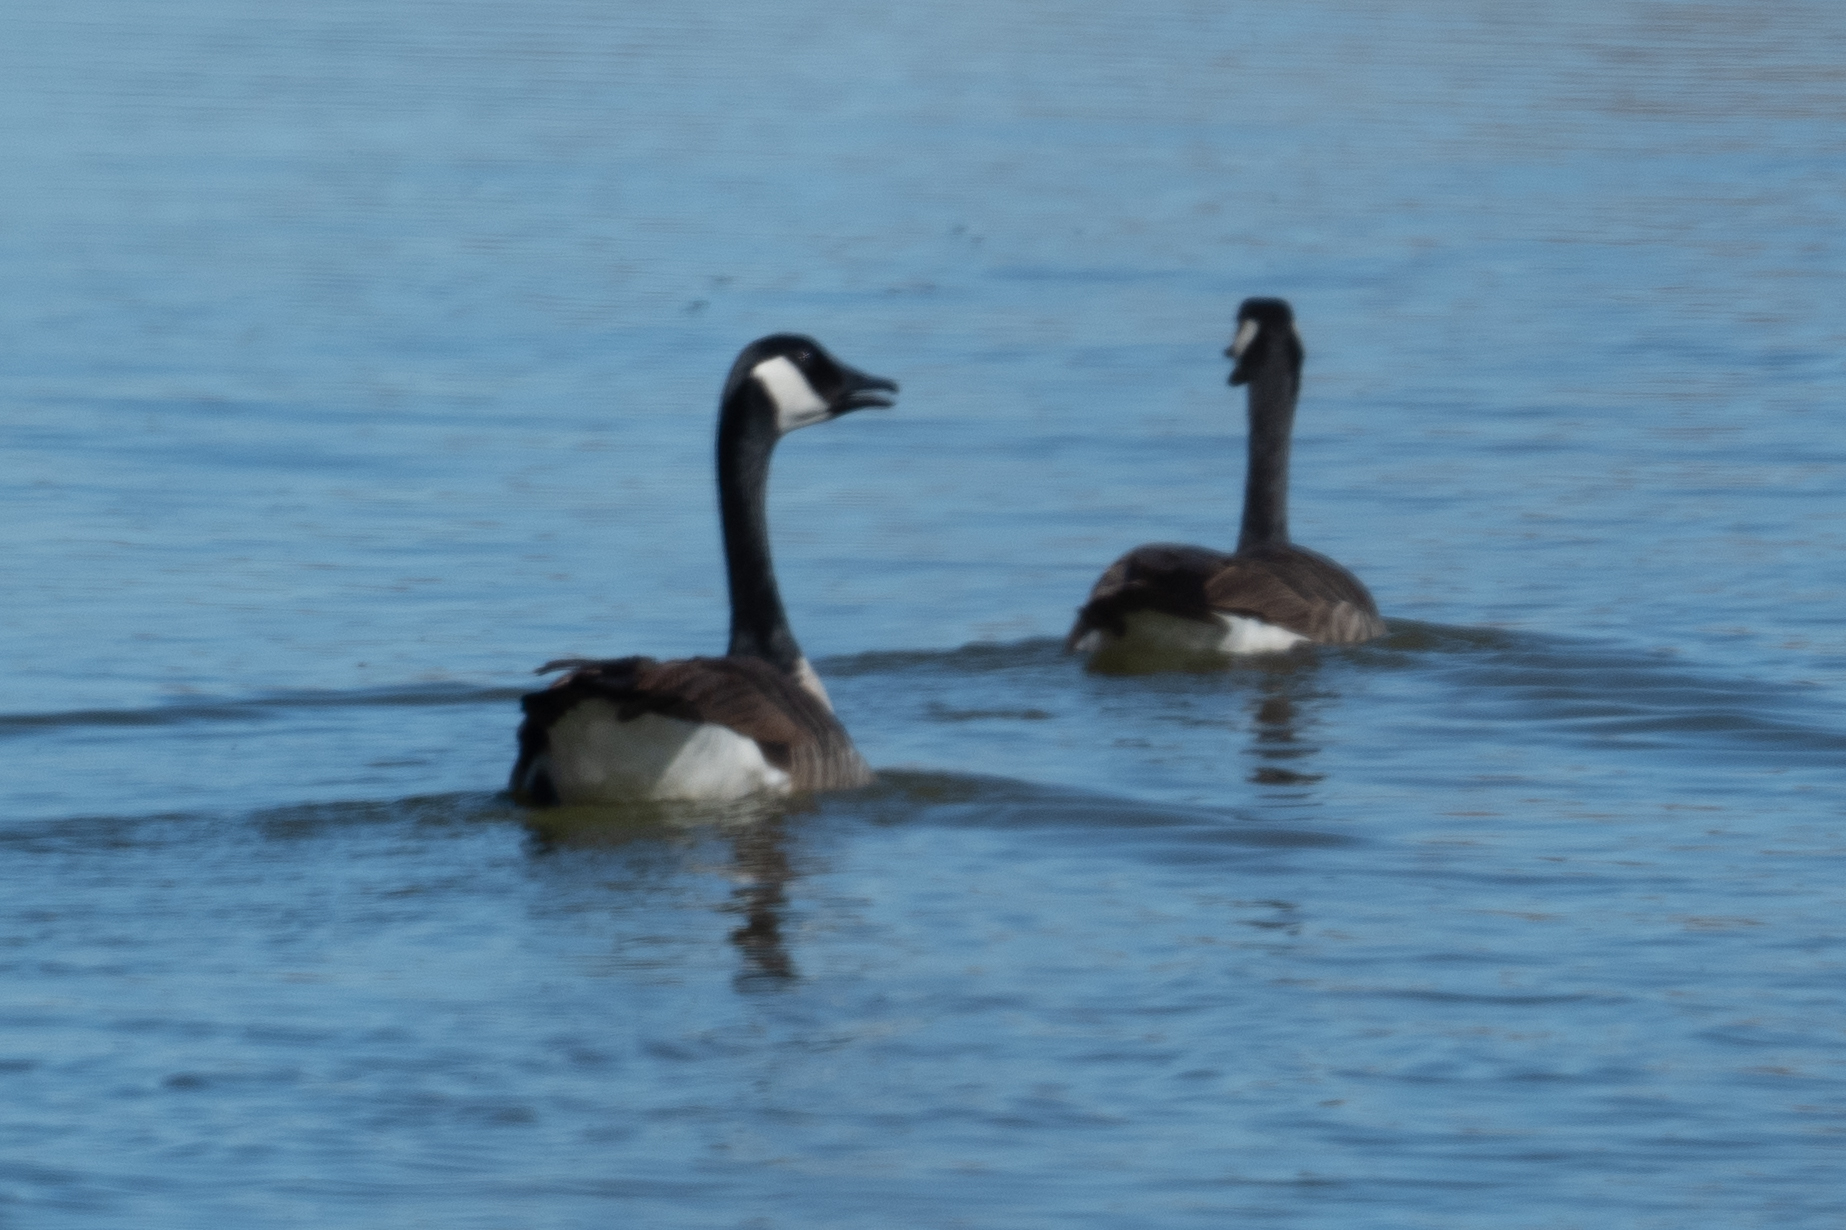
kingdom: Animalia
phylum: Chordata
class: Aves
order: Anseriformes
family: Anatidae
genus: Branta
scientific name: Branta canadensis
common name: Canada goose
